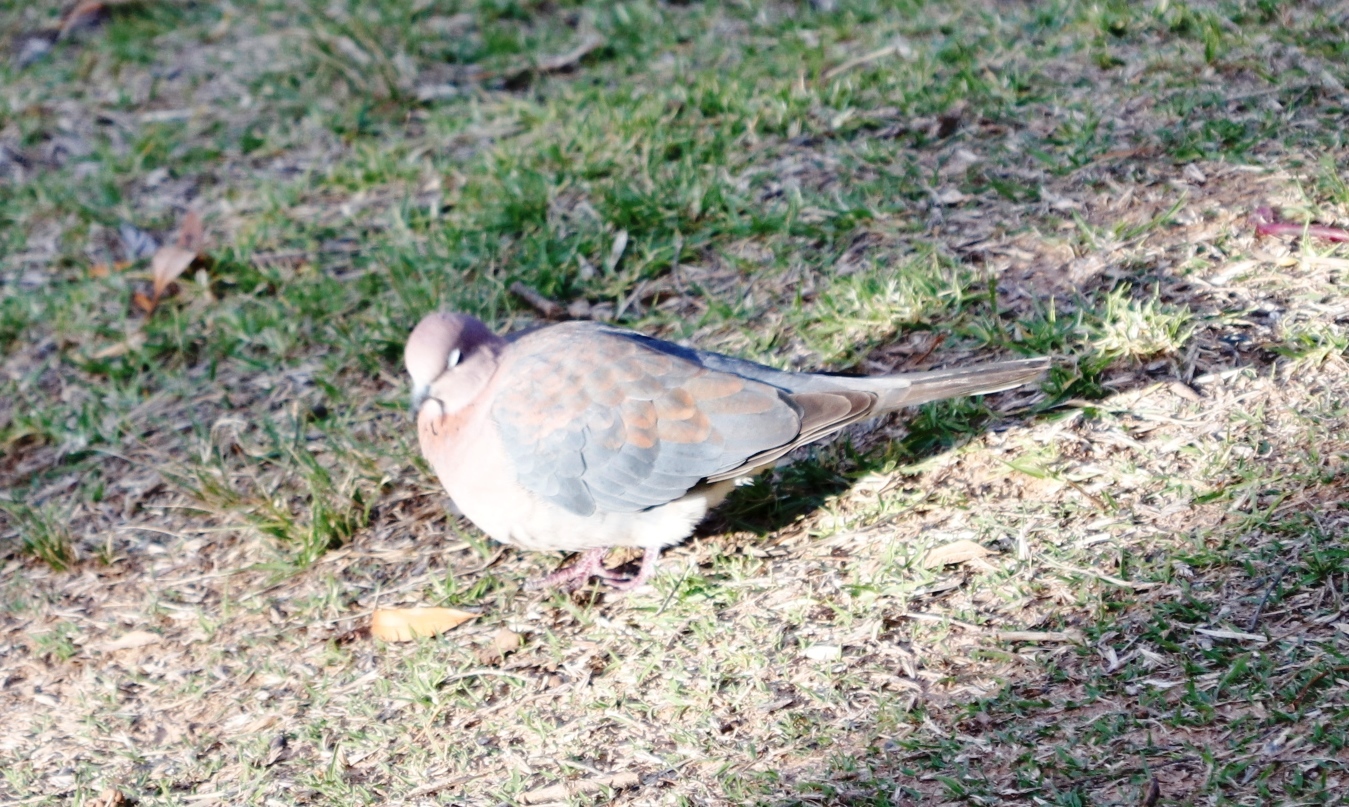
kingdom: Animalia
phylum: Chordata
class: Aves
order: Columbiformes
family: Columbidae
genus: Spilopelia
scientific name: Spilopelia senegalensis
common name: Laughing dove
